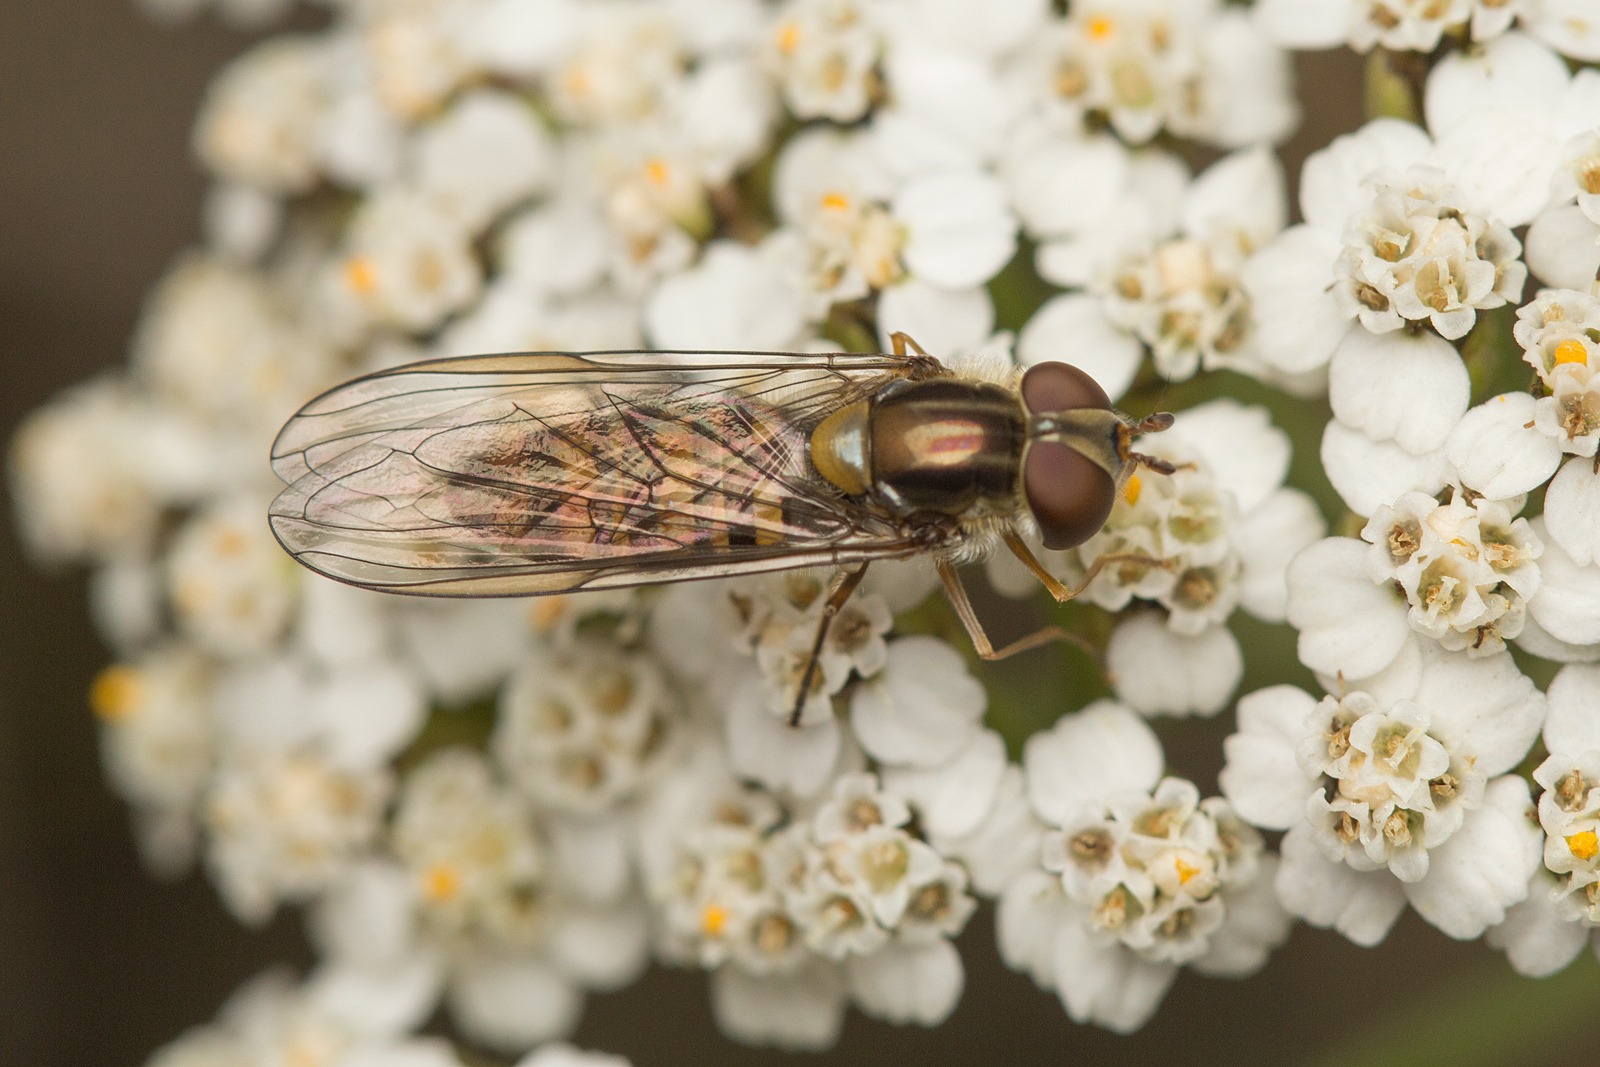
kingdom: Animalia
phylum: Arthropoda
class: Insecta
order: Diptera
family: Syrphidae
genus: Episyrphus
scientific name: Episyrphus balteatus
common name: Marmalade hoverfly
